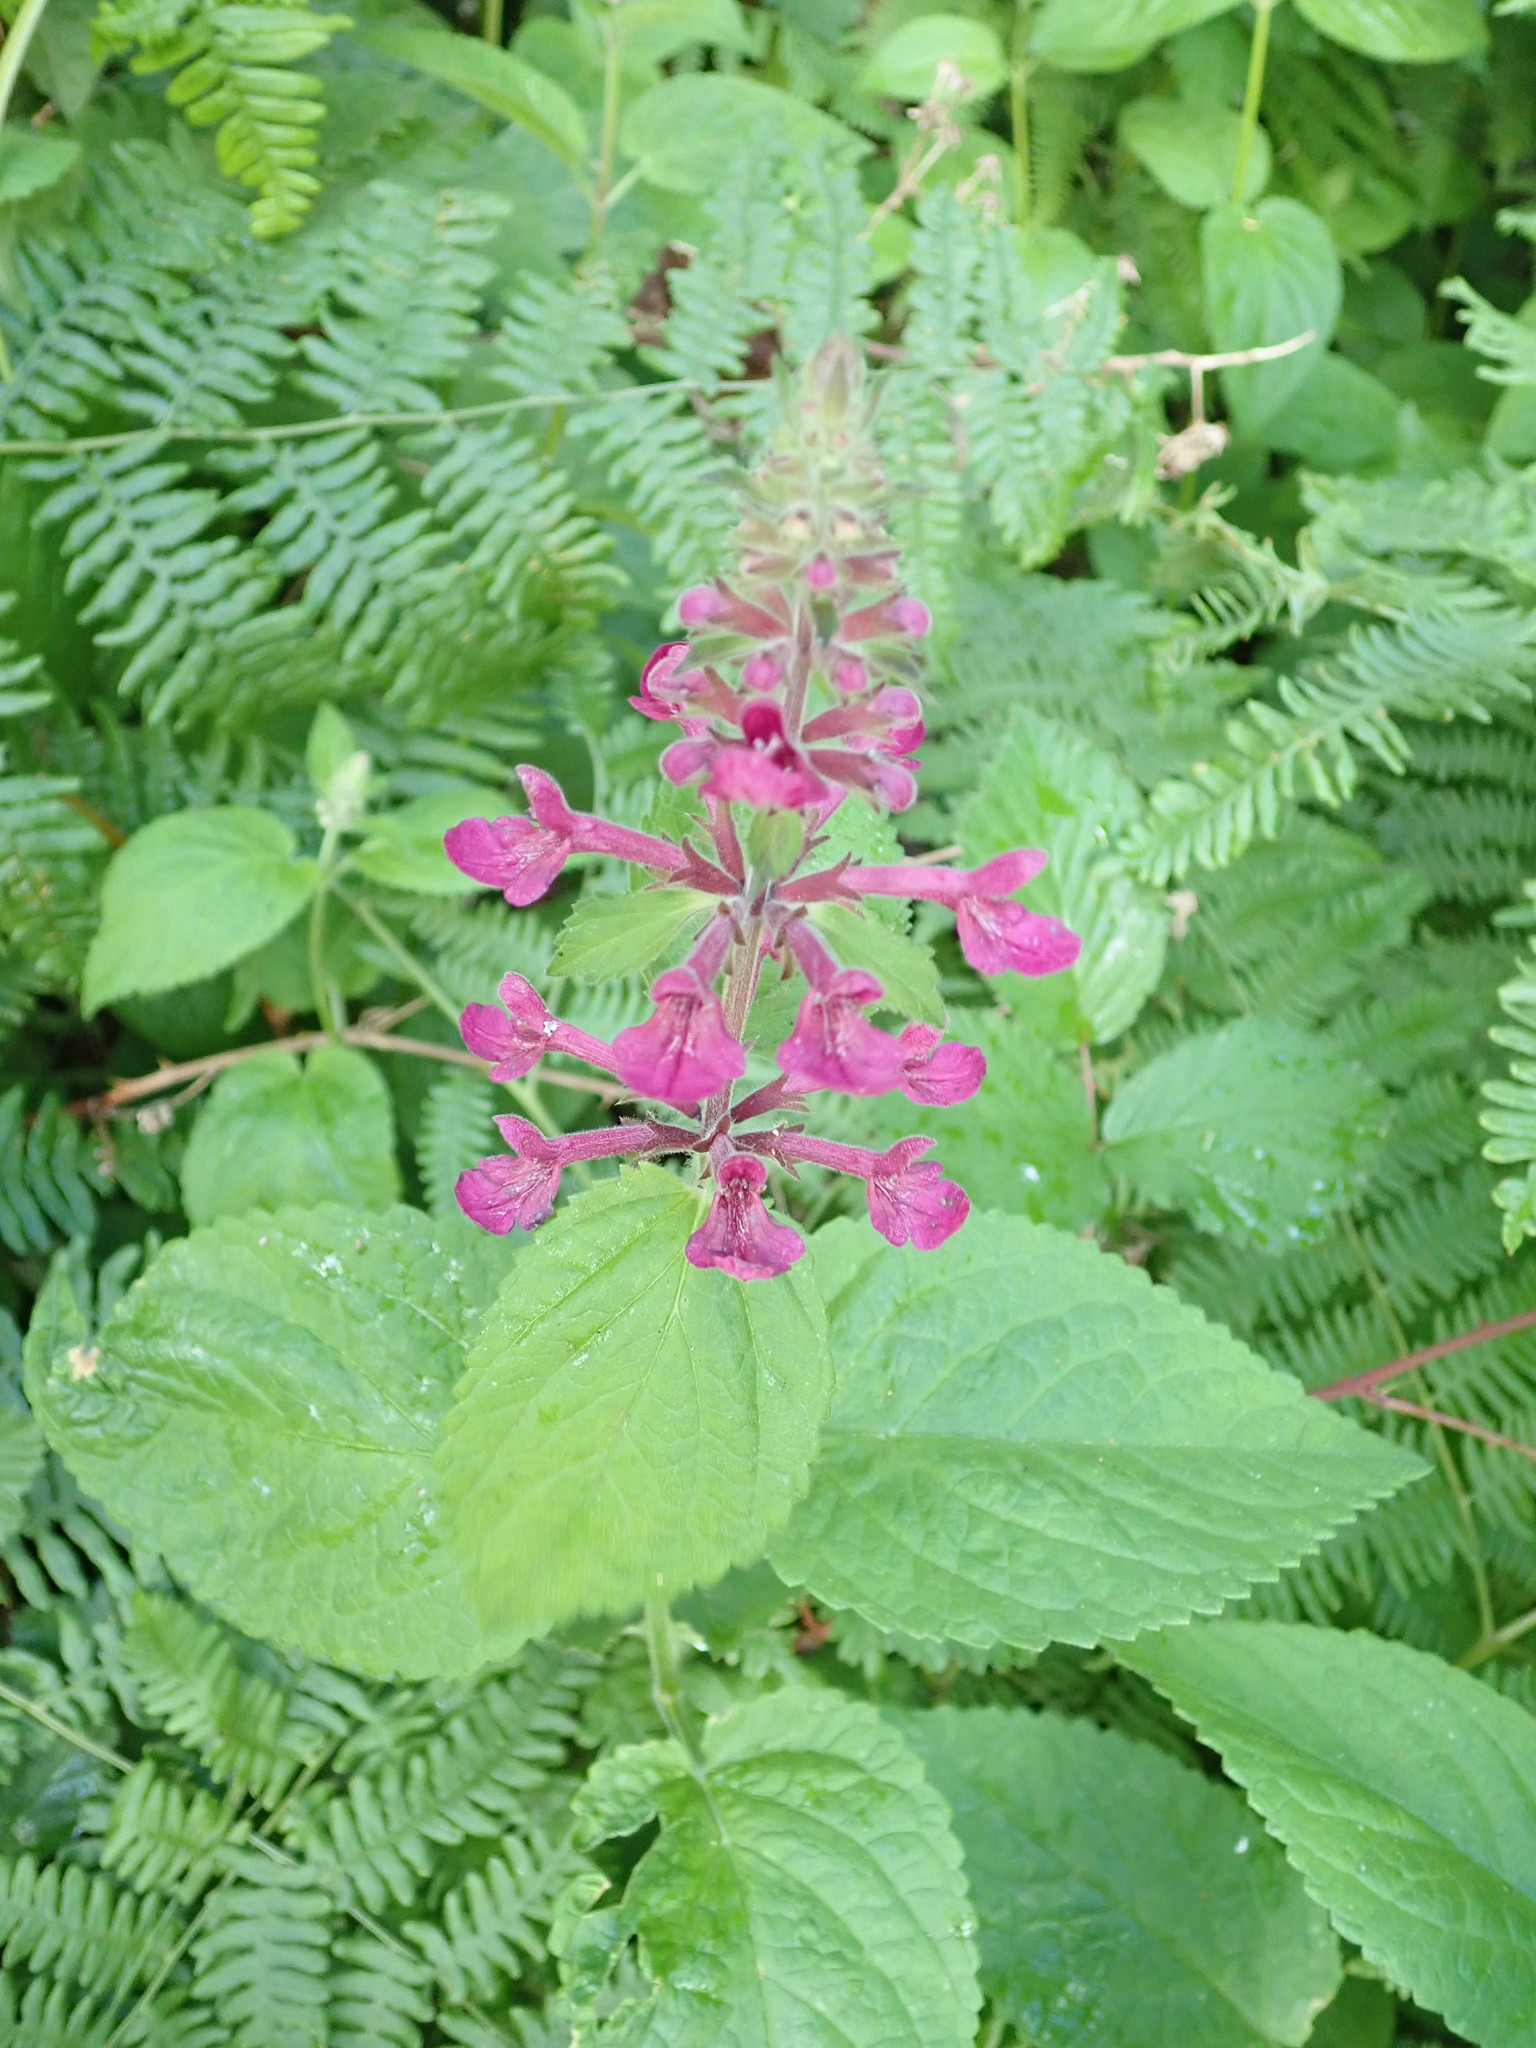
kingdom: Plantae
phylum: Tracheophyta
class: Magnoliopsida
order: Lamiales
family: Lamiaceae
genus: Stachys
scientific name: Stachys chamissonis
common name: Coastal hedge-nettle
